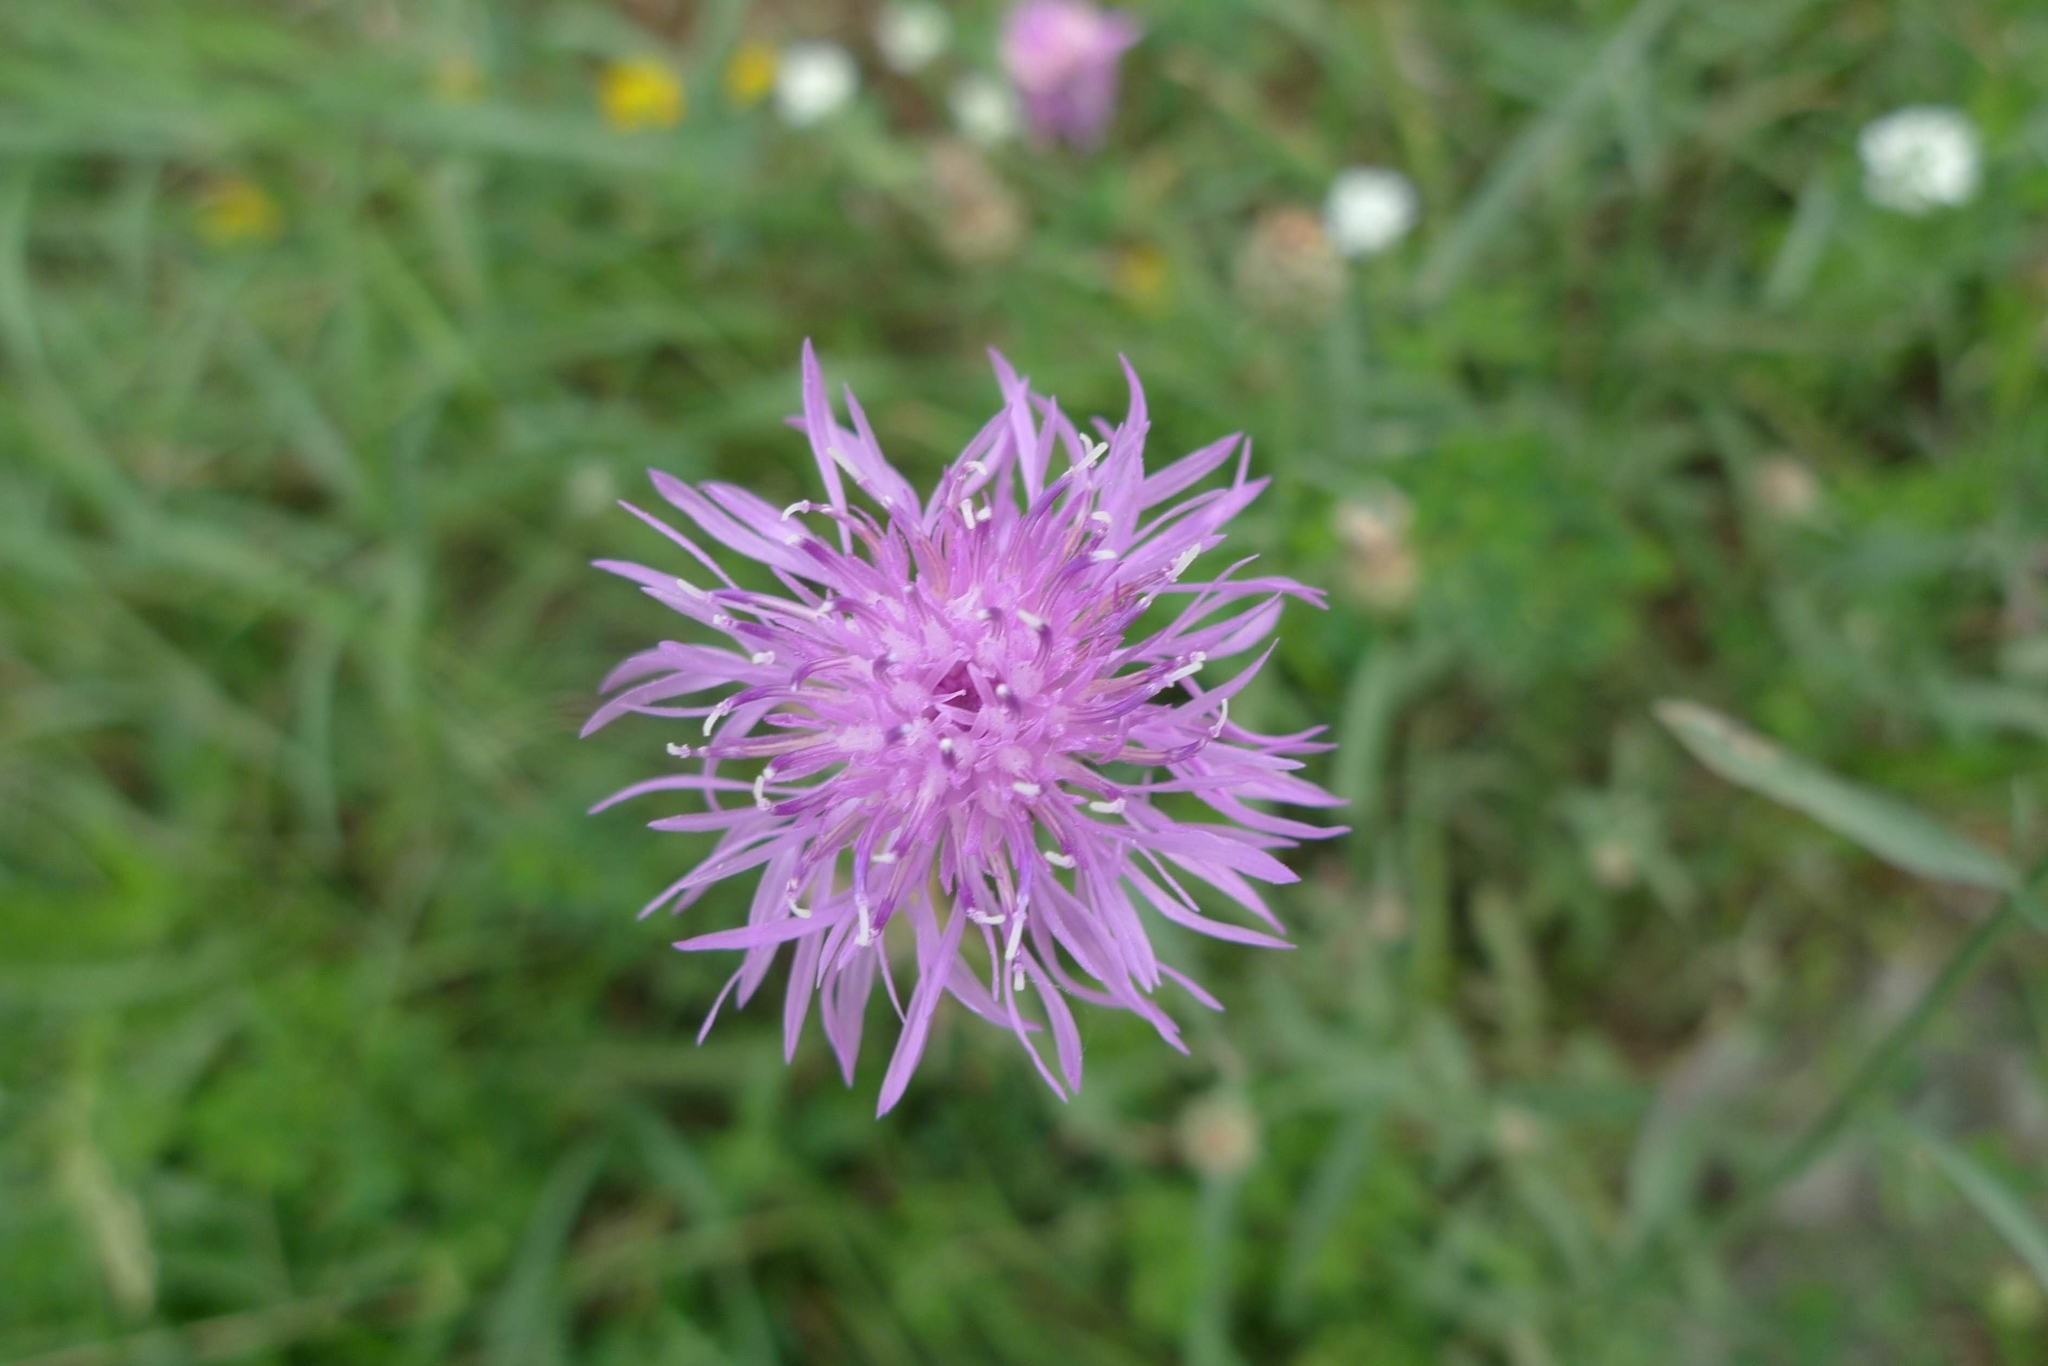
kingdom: Plantae
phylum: Tracheophyta
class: Magnoliopsida
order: Asterales
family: Asteraceae
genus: Centaurea
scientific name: Centaurea stoebe
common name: Spotted knapweed
